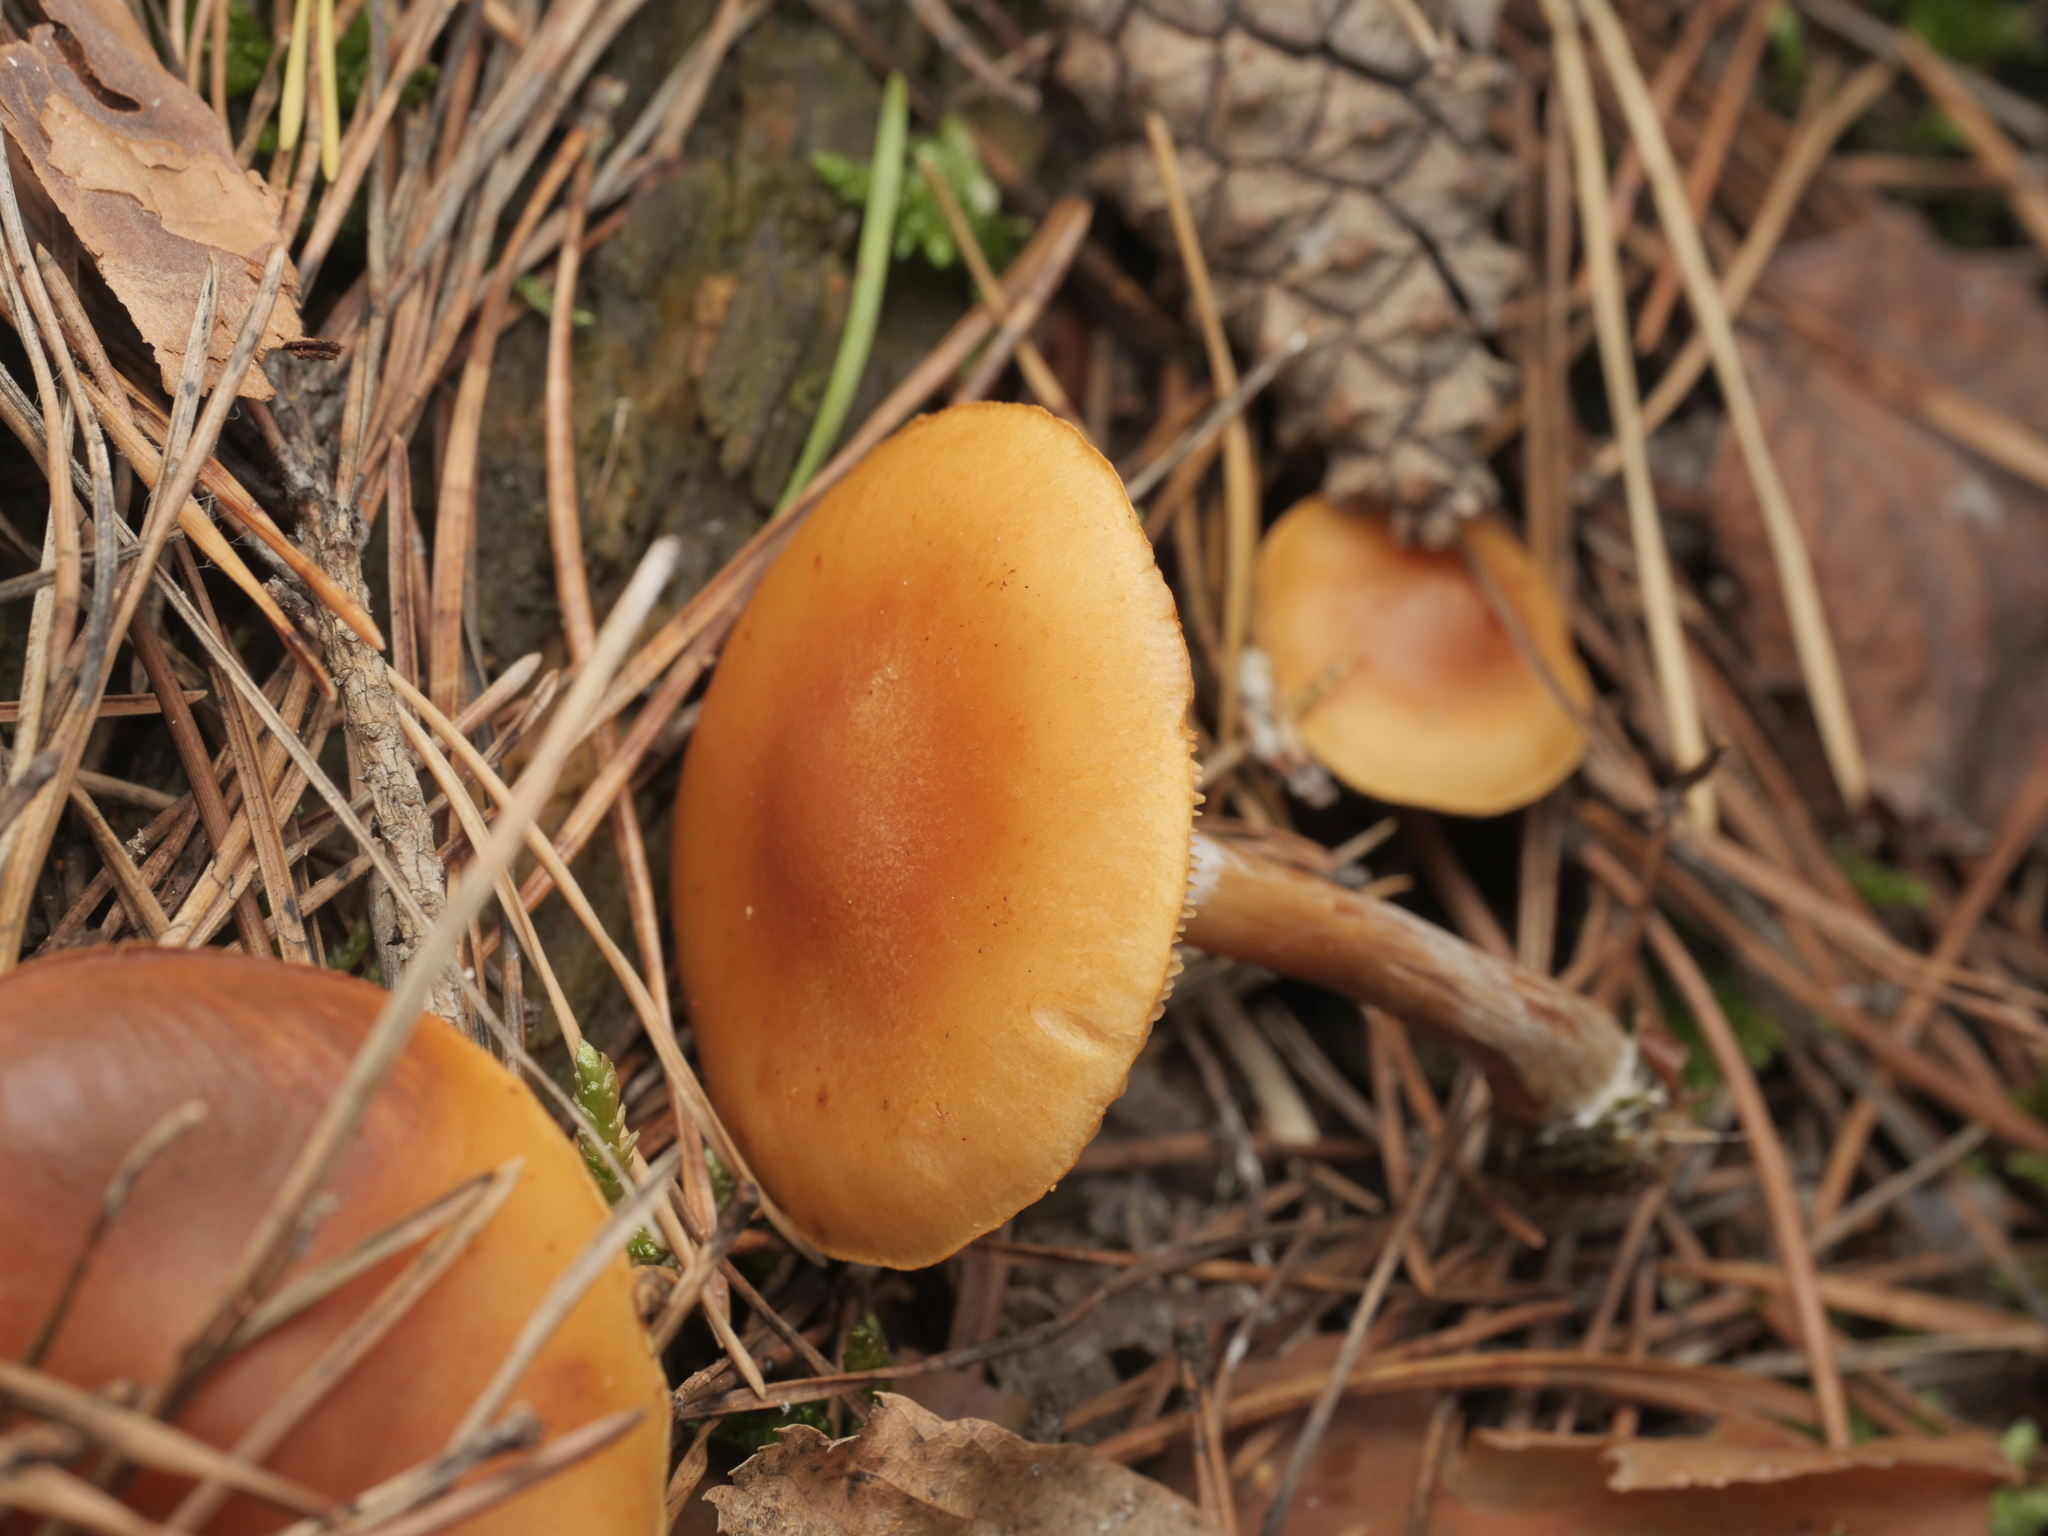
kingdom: Fungi
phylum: Basidiomycota
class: Agaricomycetes
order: Agaricales
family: Hymenogastraceae
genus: Gymnopilus
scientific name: Gymnopilus
